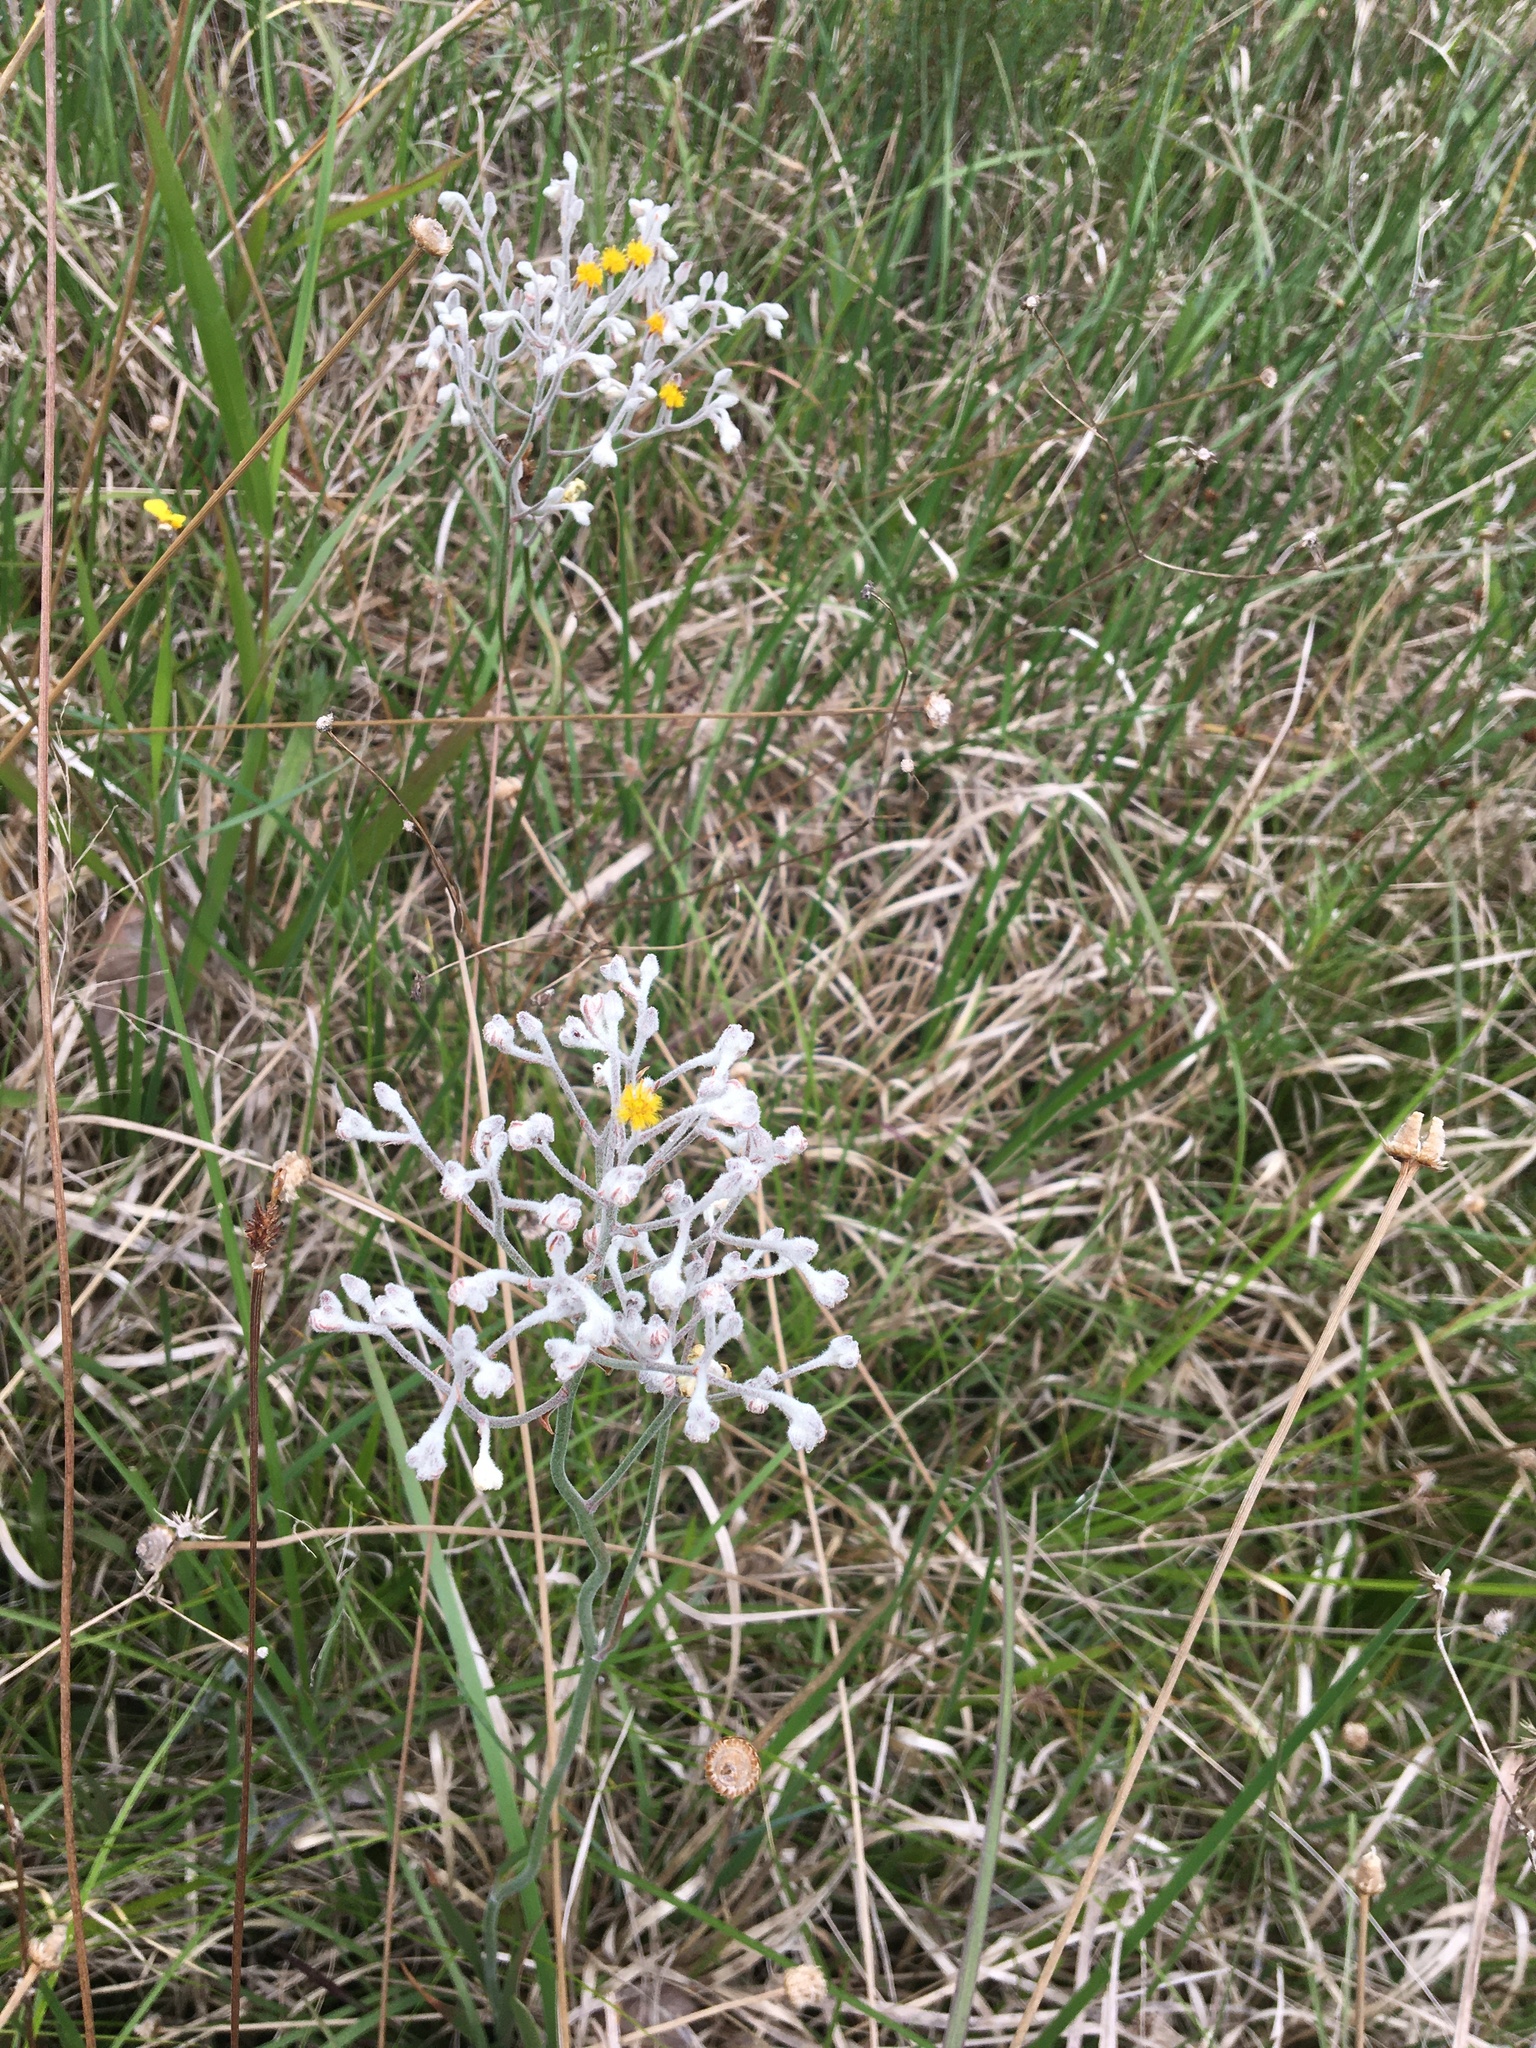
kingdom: Plantae
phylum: Tracheophyta
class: Liliopsida
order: Dioscoreales
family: Nartheciaceae
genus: Lophiola
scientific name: Lophiola aurea
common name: Golden-crest
